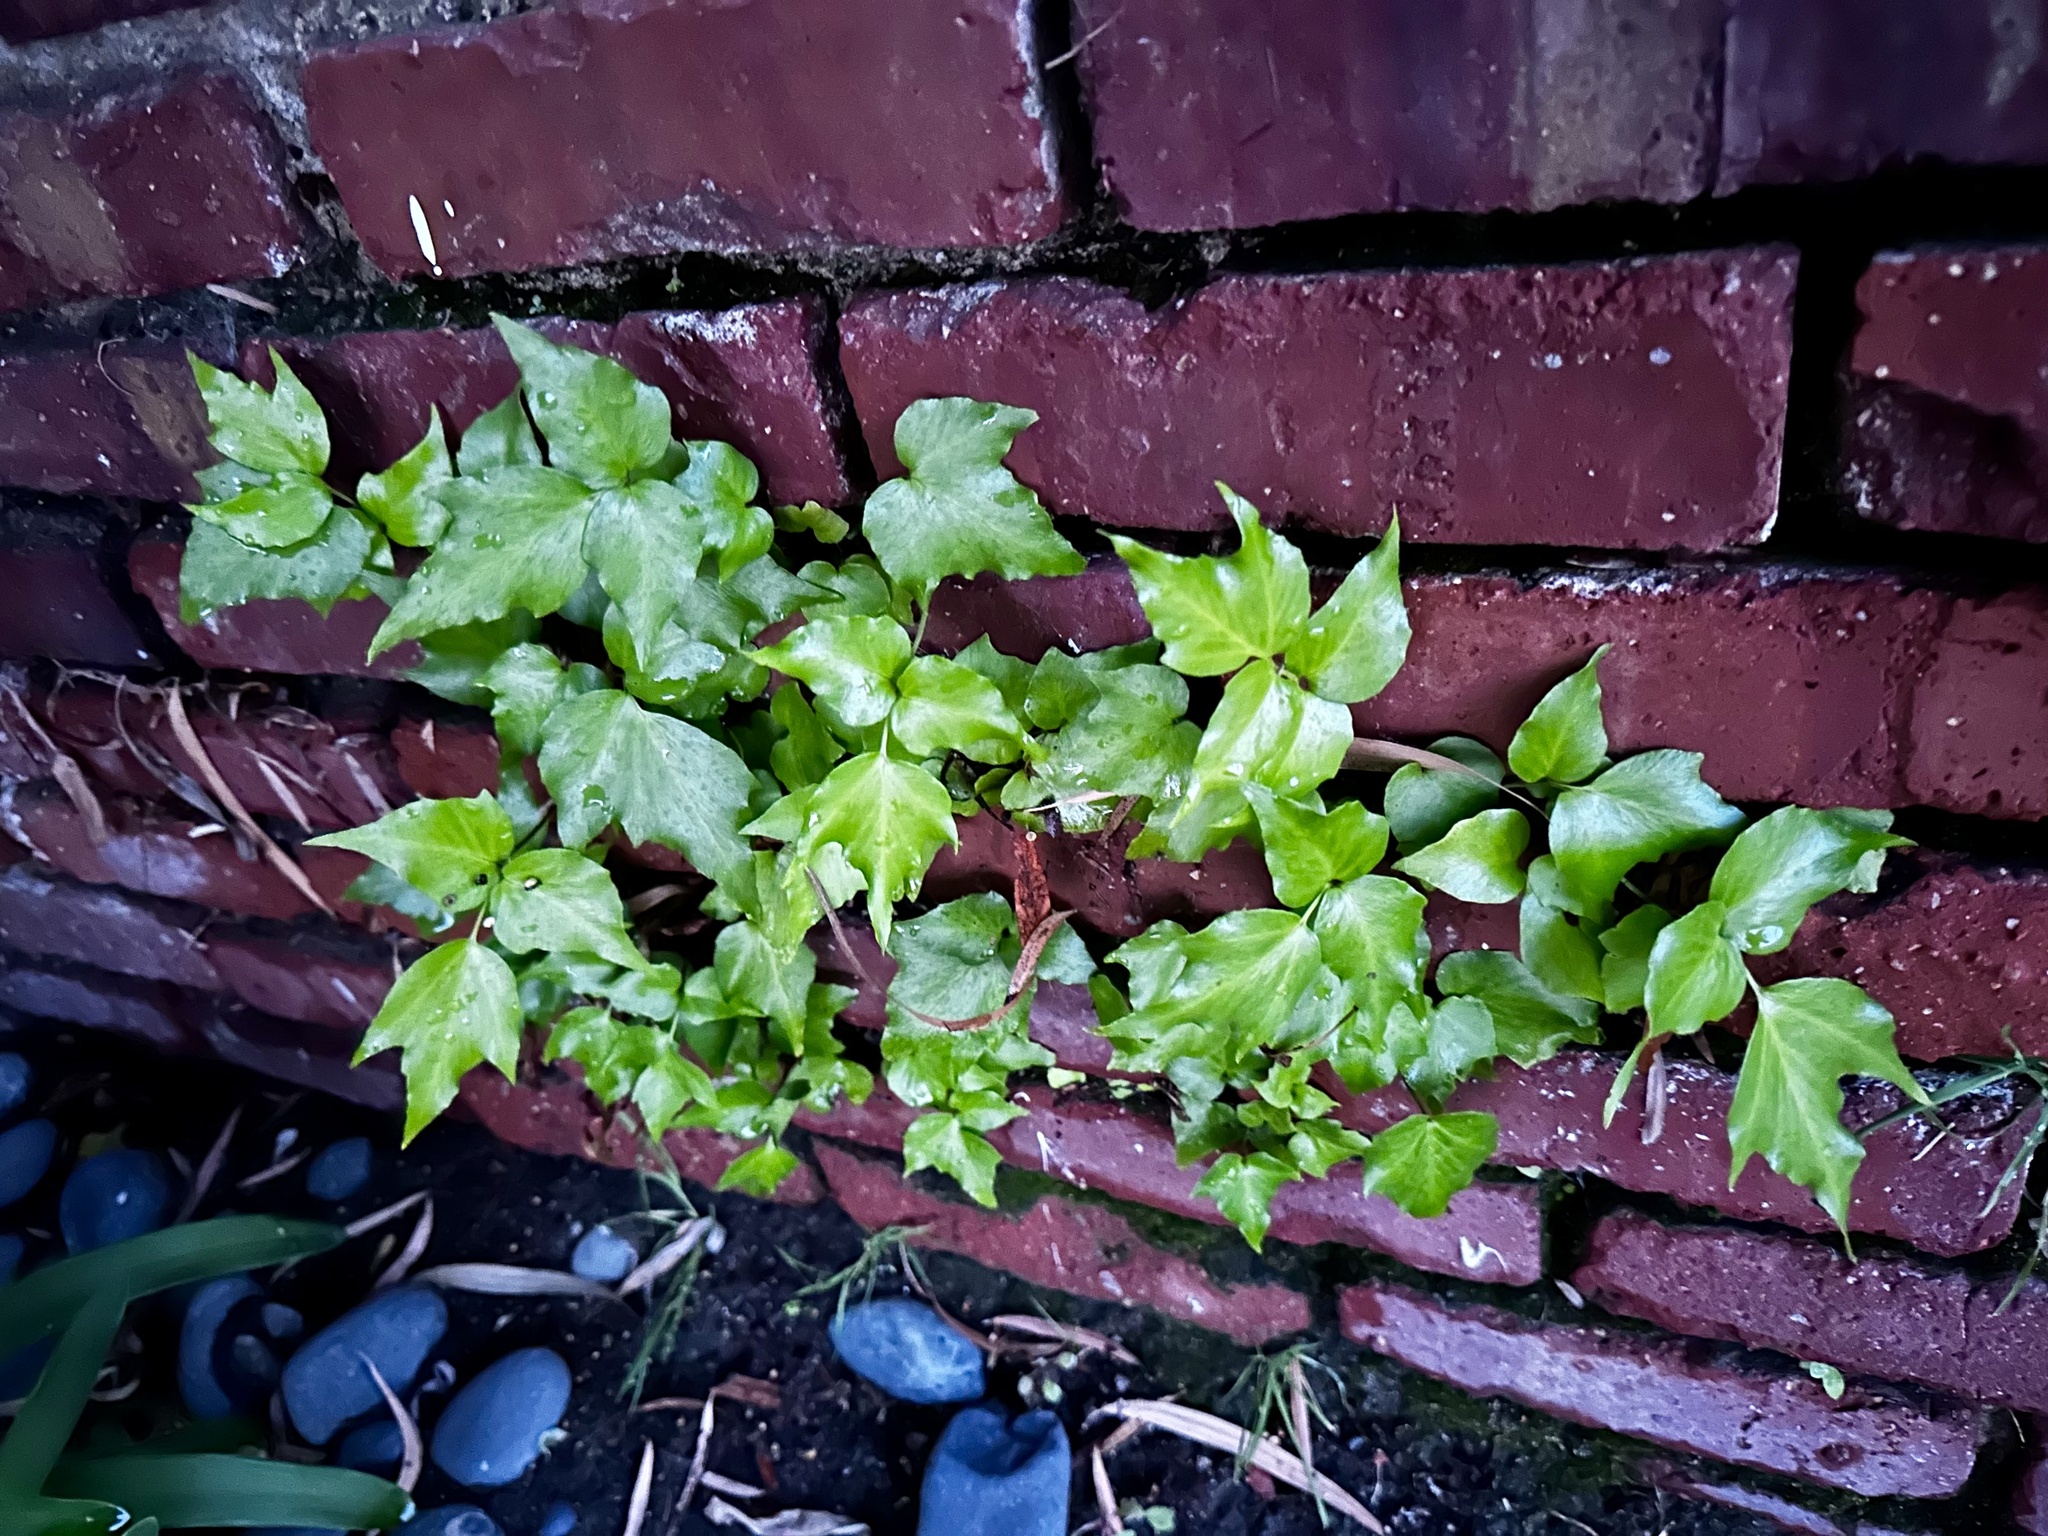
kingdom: Plantae
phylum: Tracheophyta
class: Polypodiopsida
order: Polypodiales
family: Dryopteridaceae
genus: Cyrtomium
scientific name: Cyrtomium falcatum
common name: House holly-fern
